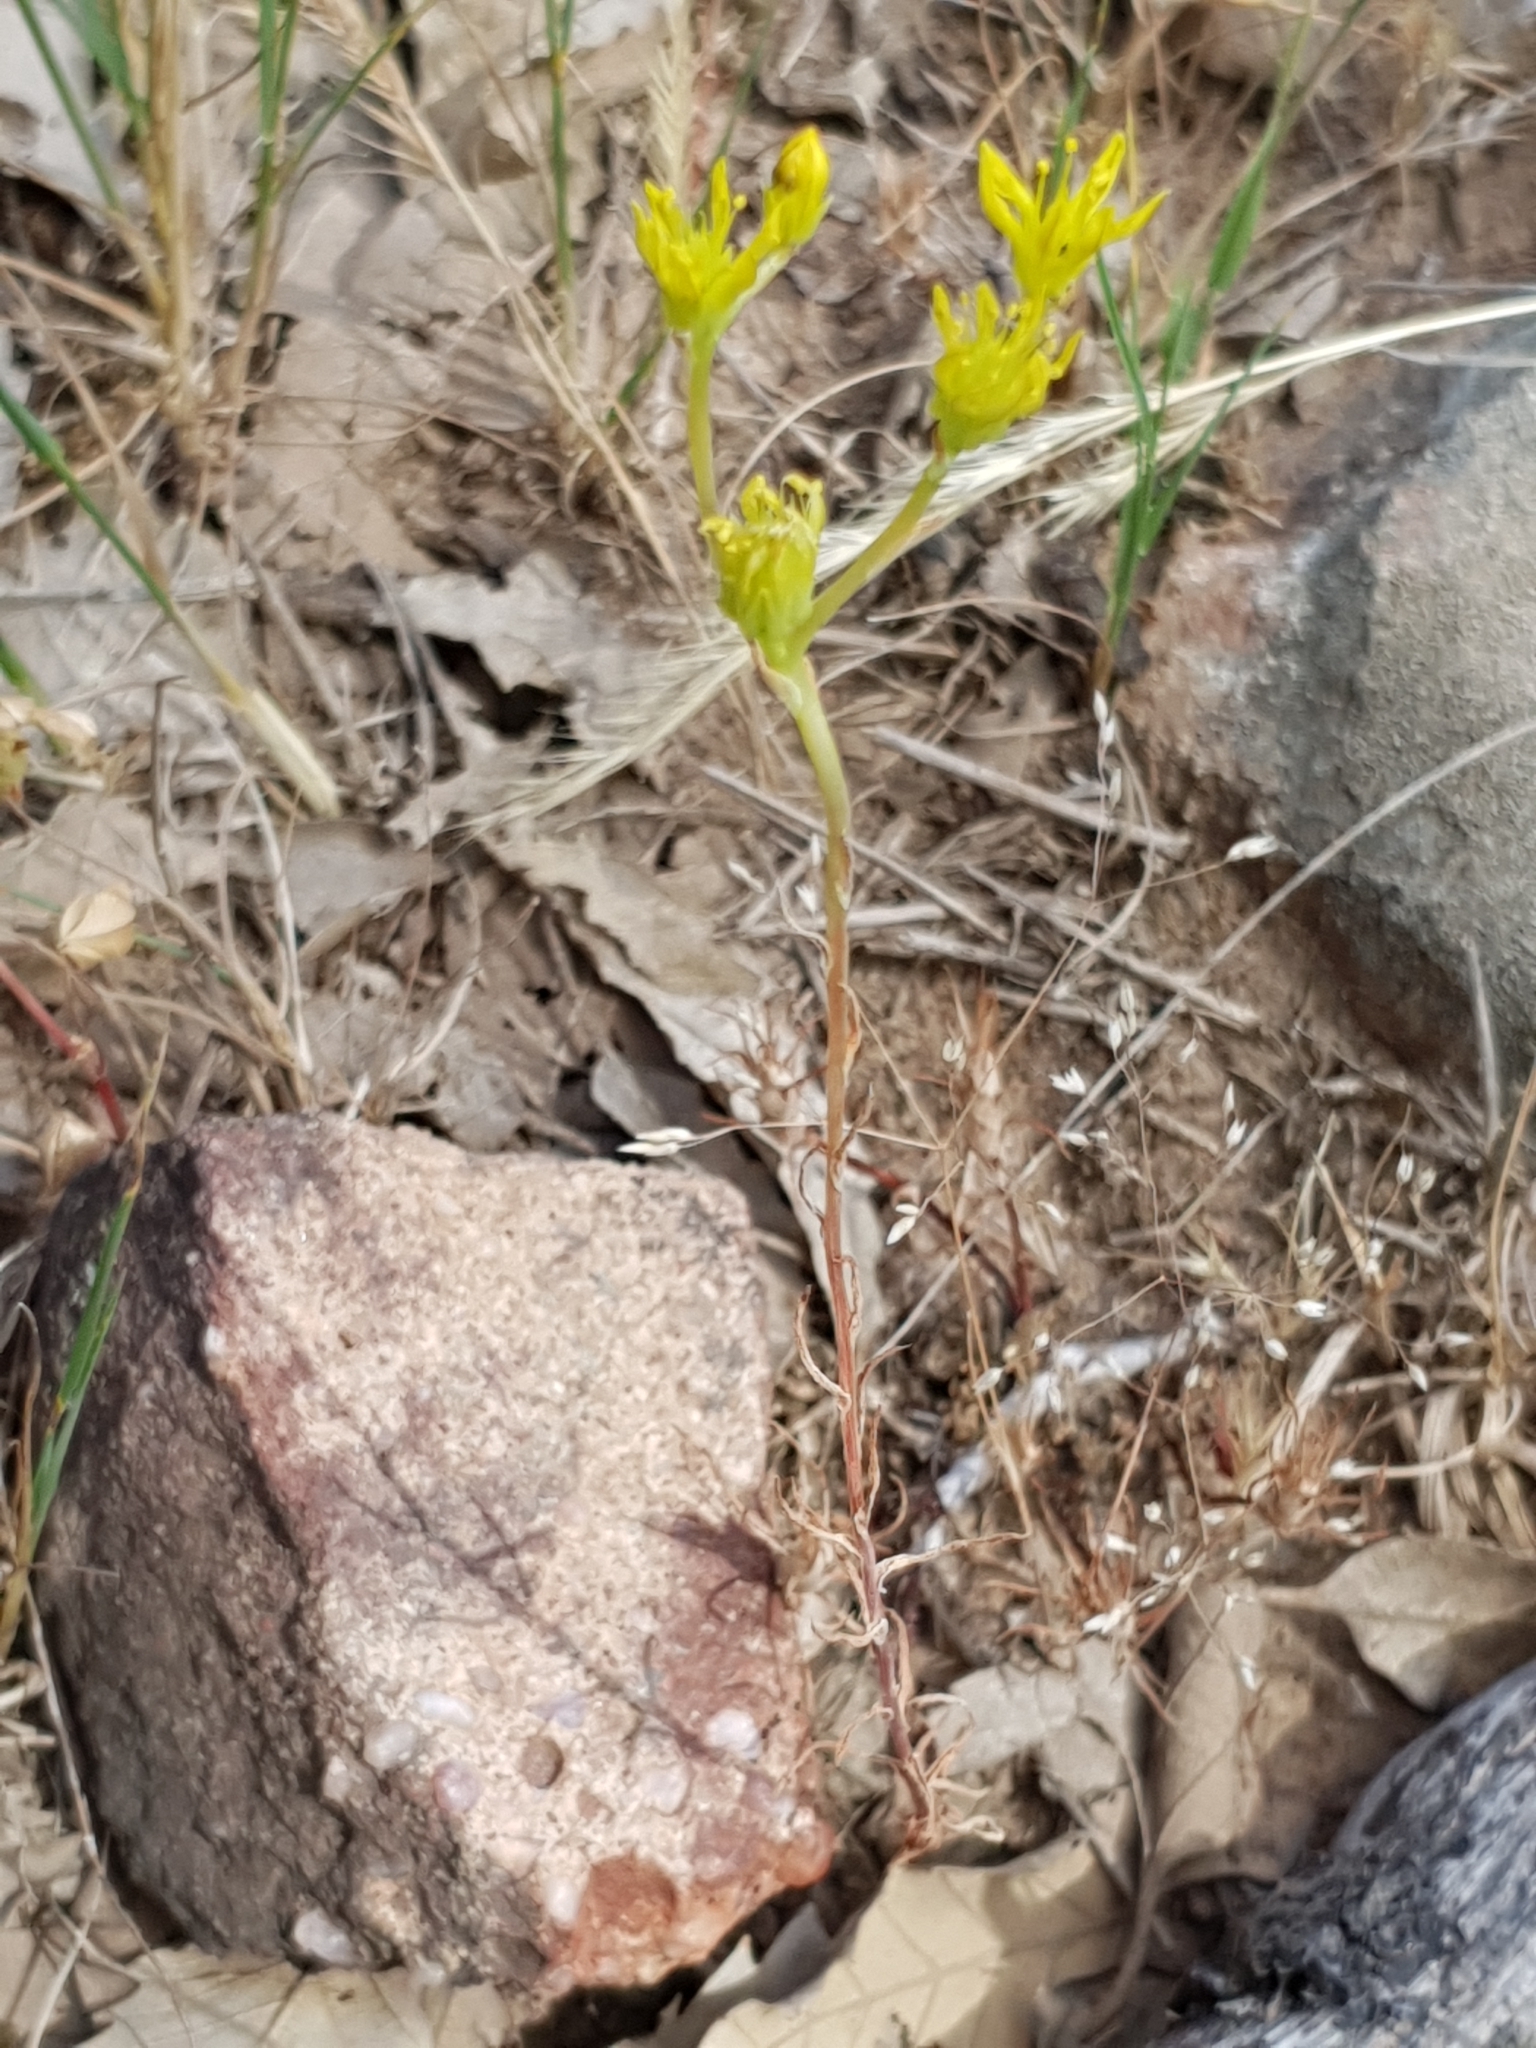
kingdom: Plantae
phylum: Tracheophyta
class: Magnoliopsida
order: Saxifragales
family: Crassulaceae
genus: Petrosedum
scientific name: Petrosedum amplexicaule
